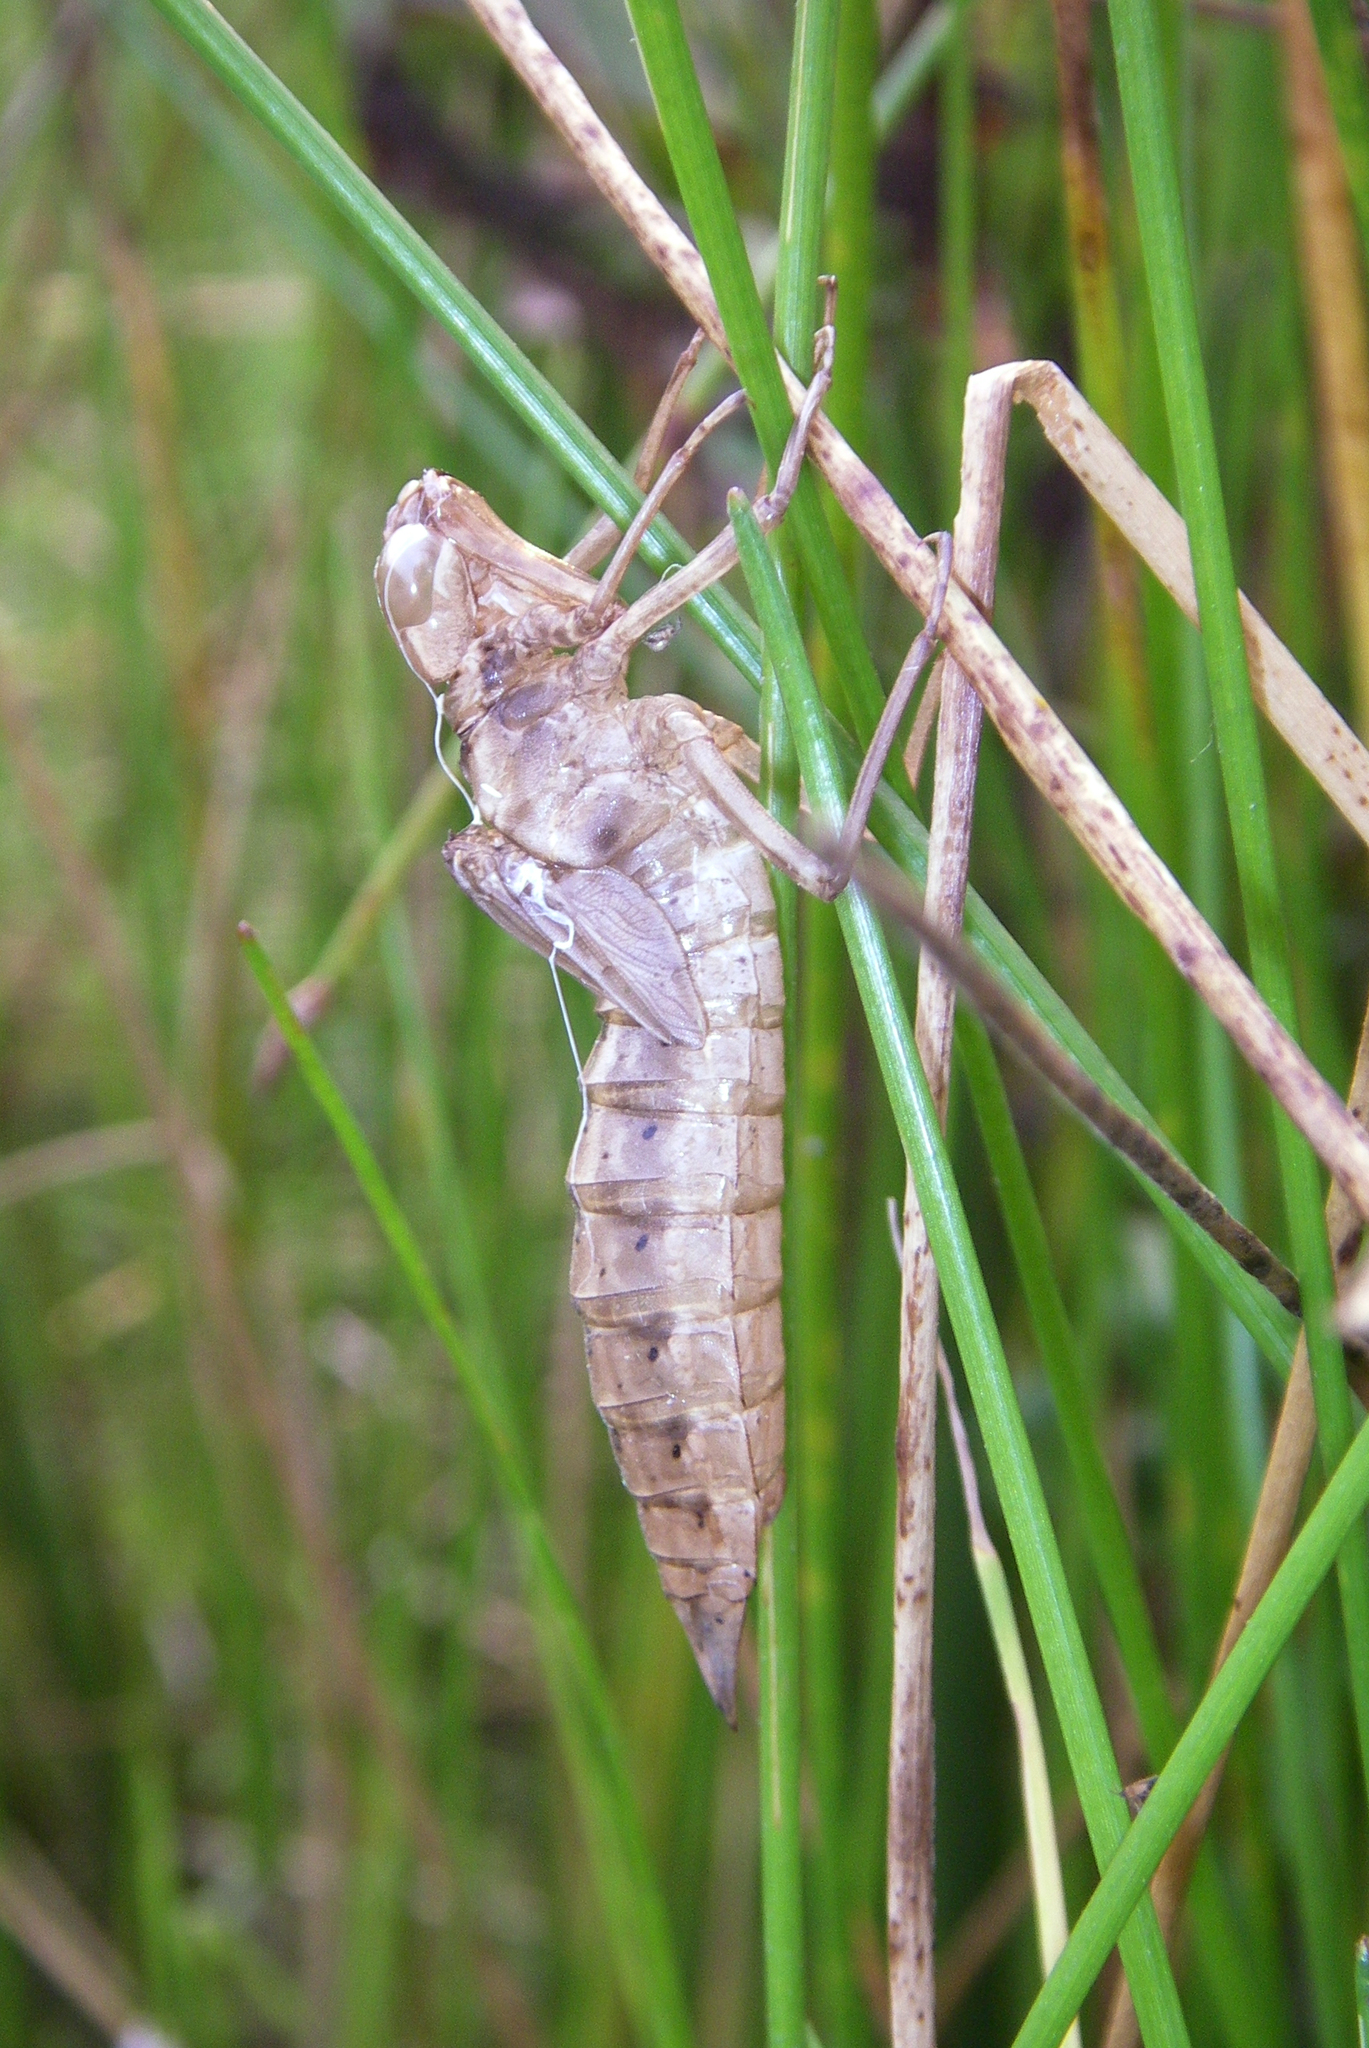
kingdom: Animalia
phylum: Arthropoda
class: Insecta
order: Odonata
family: Aeshnidae
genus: Aeshna
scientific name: Aeshna crenata
